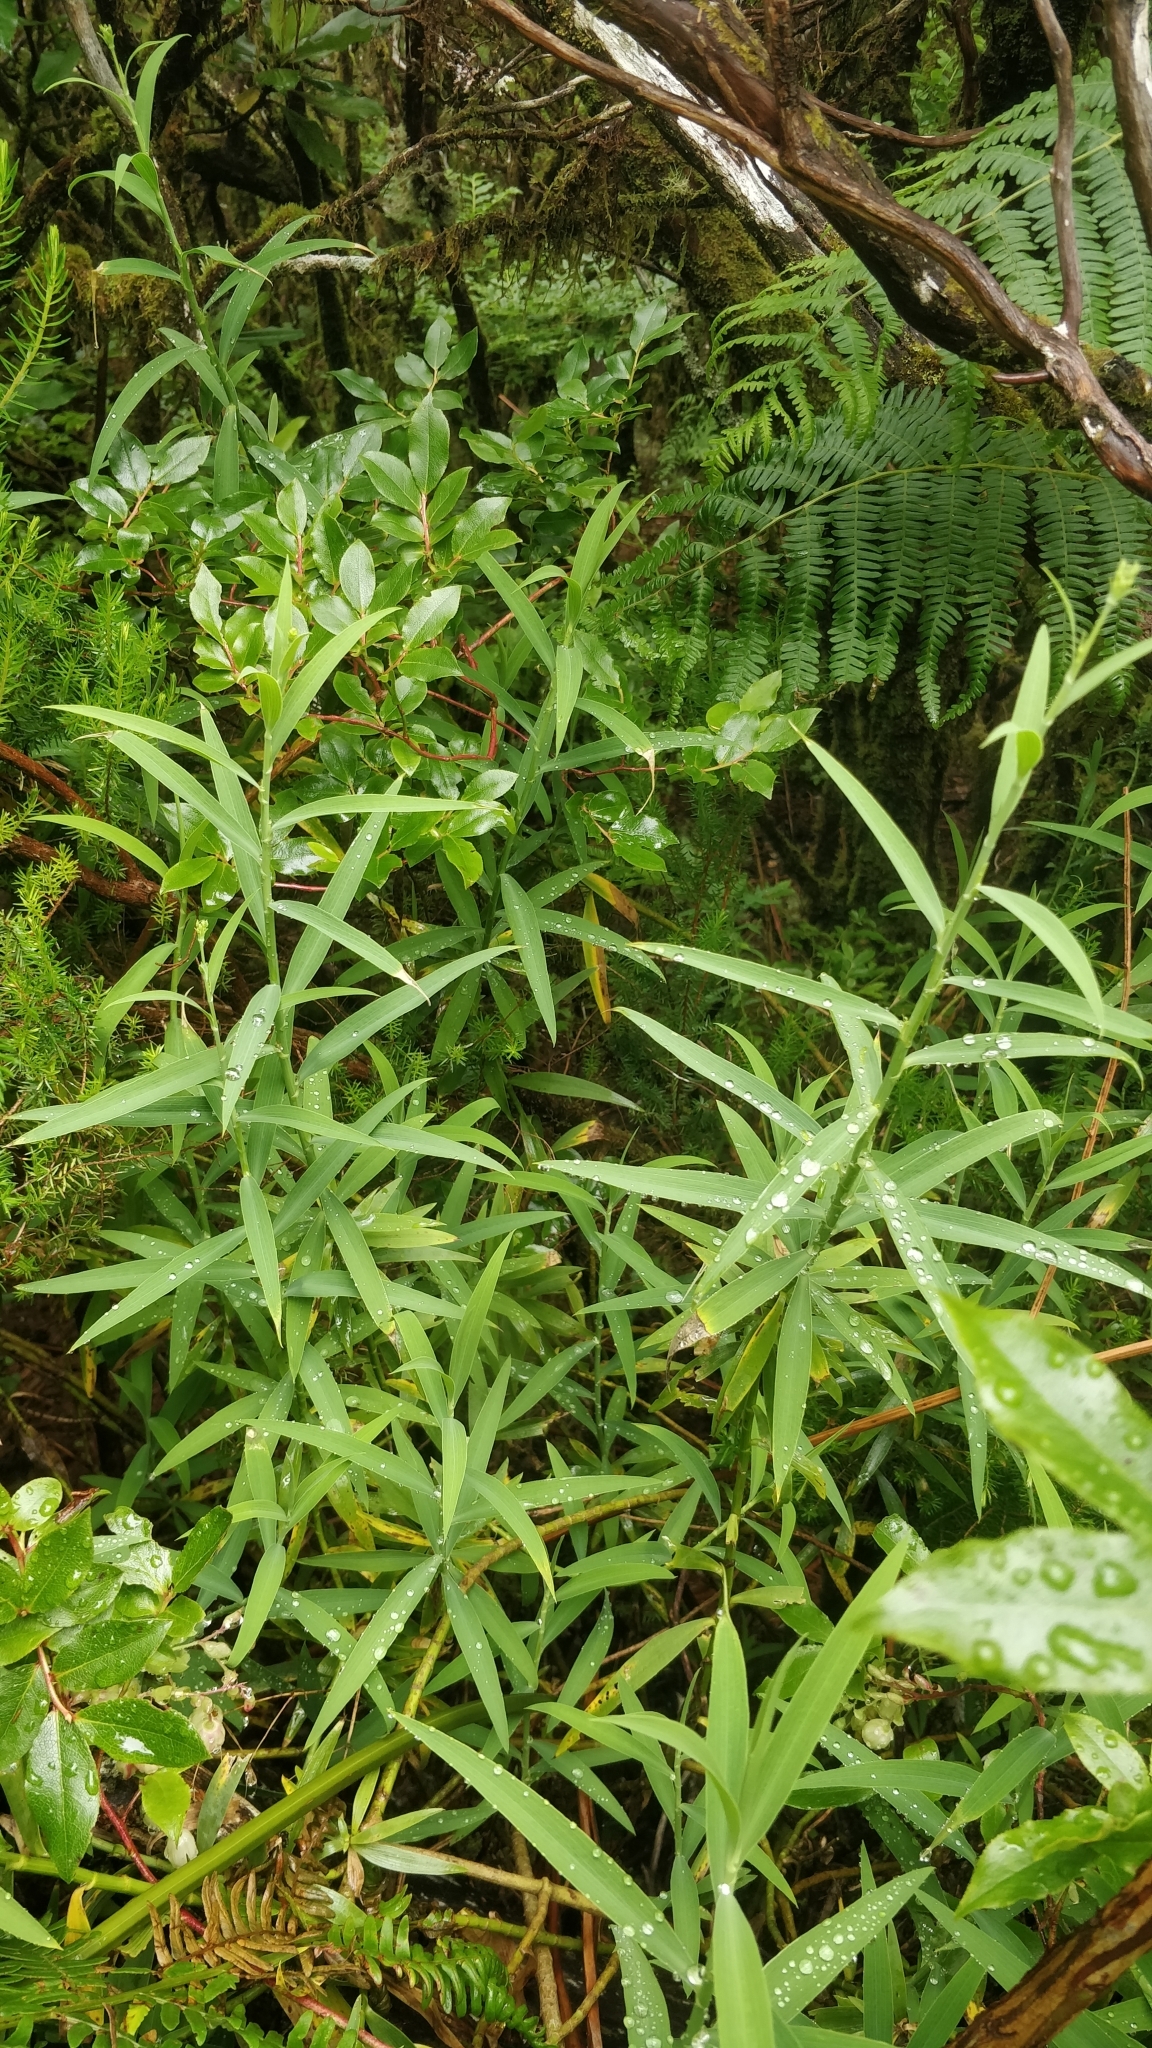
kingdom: Plantae
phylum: Tracheophyta
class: Magnoliopsida
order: Apiales
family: Apiaceae
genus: Bupleurum
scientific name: Bupleurum salicifolium
